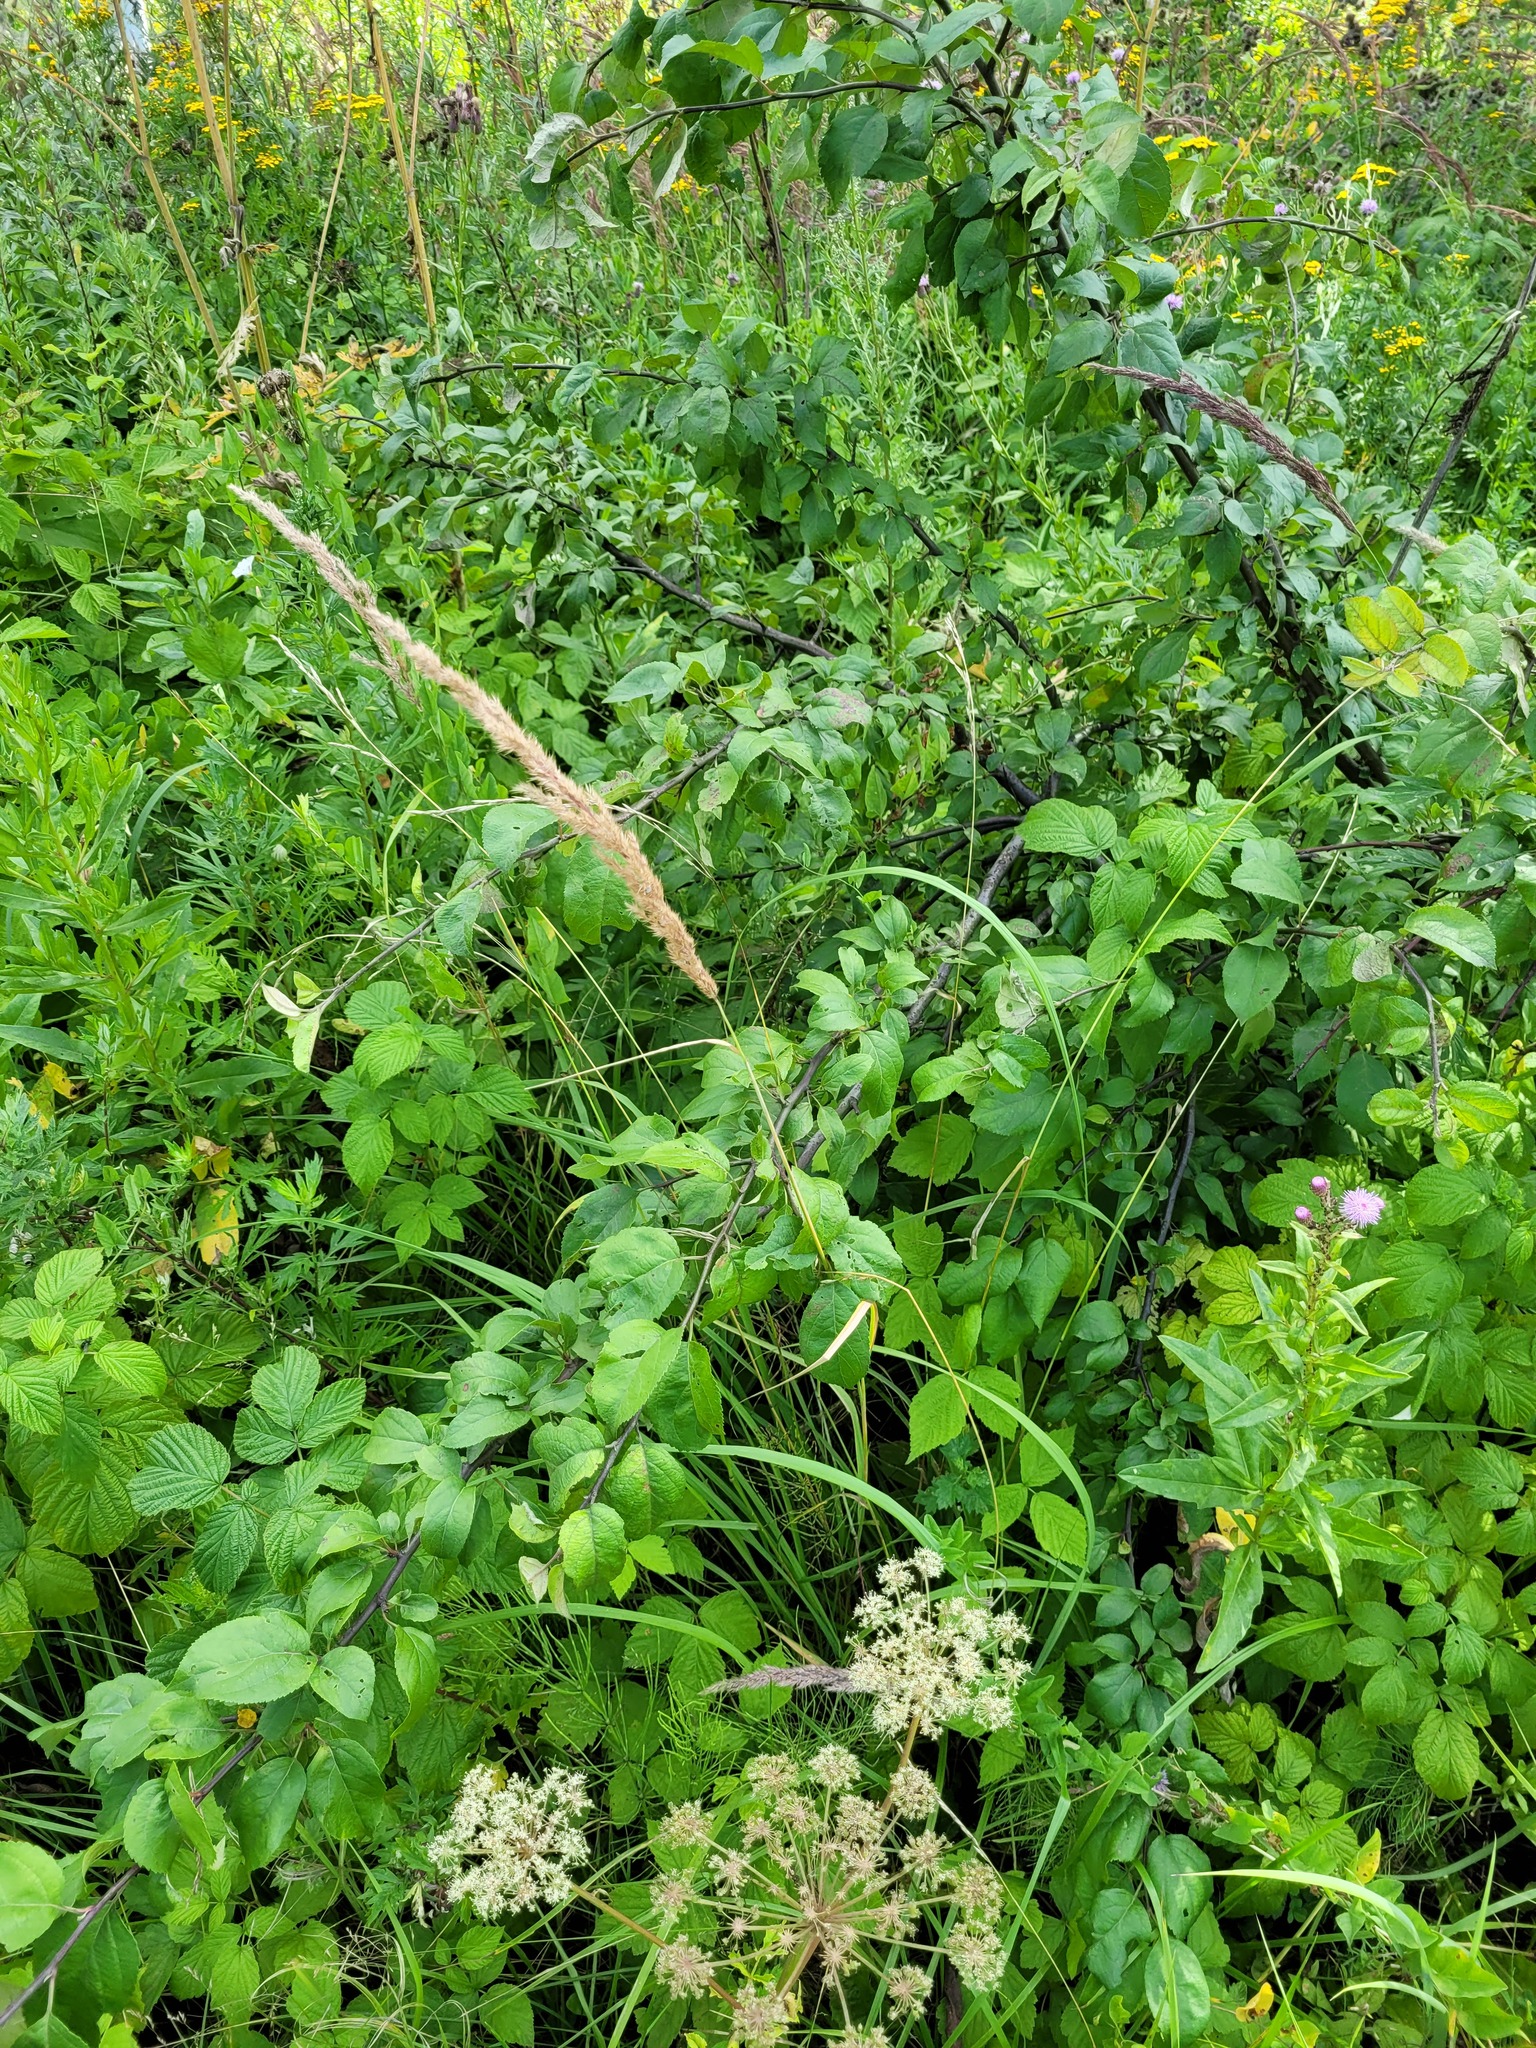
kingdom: Plantae
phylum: Tracheophyta
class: Magnoliopsida
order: Rosales
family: Rosaceae
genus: Malus
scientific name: Malus domestica
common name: Apple
